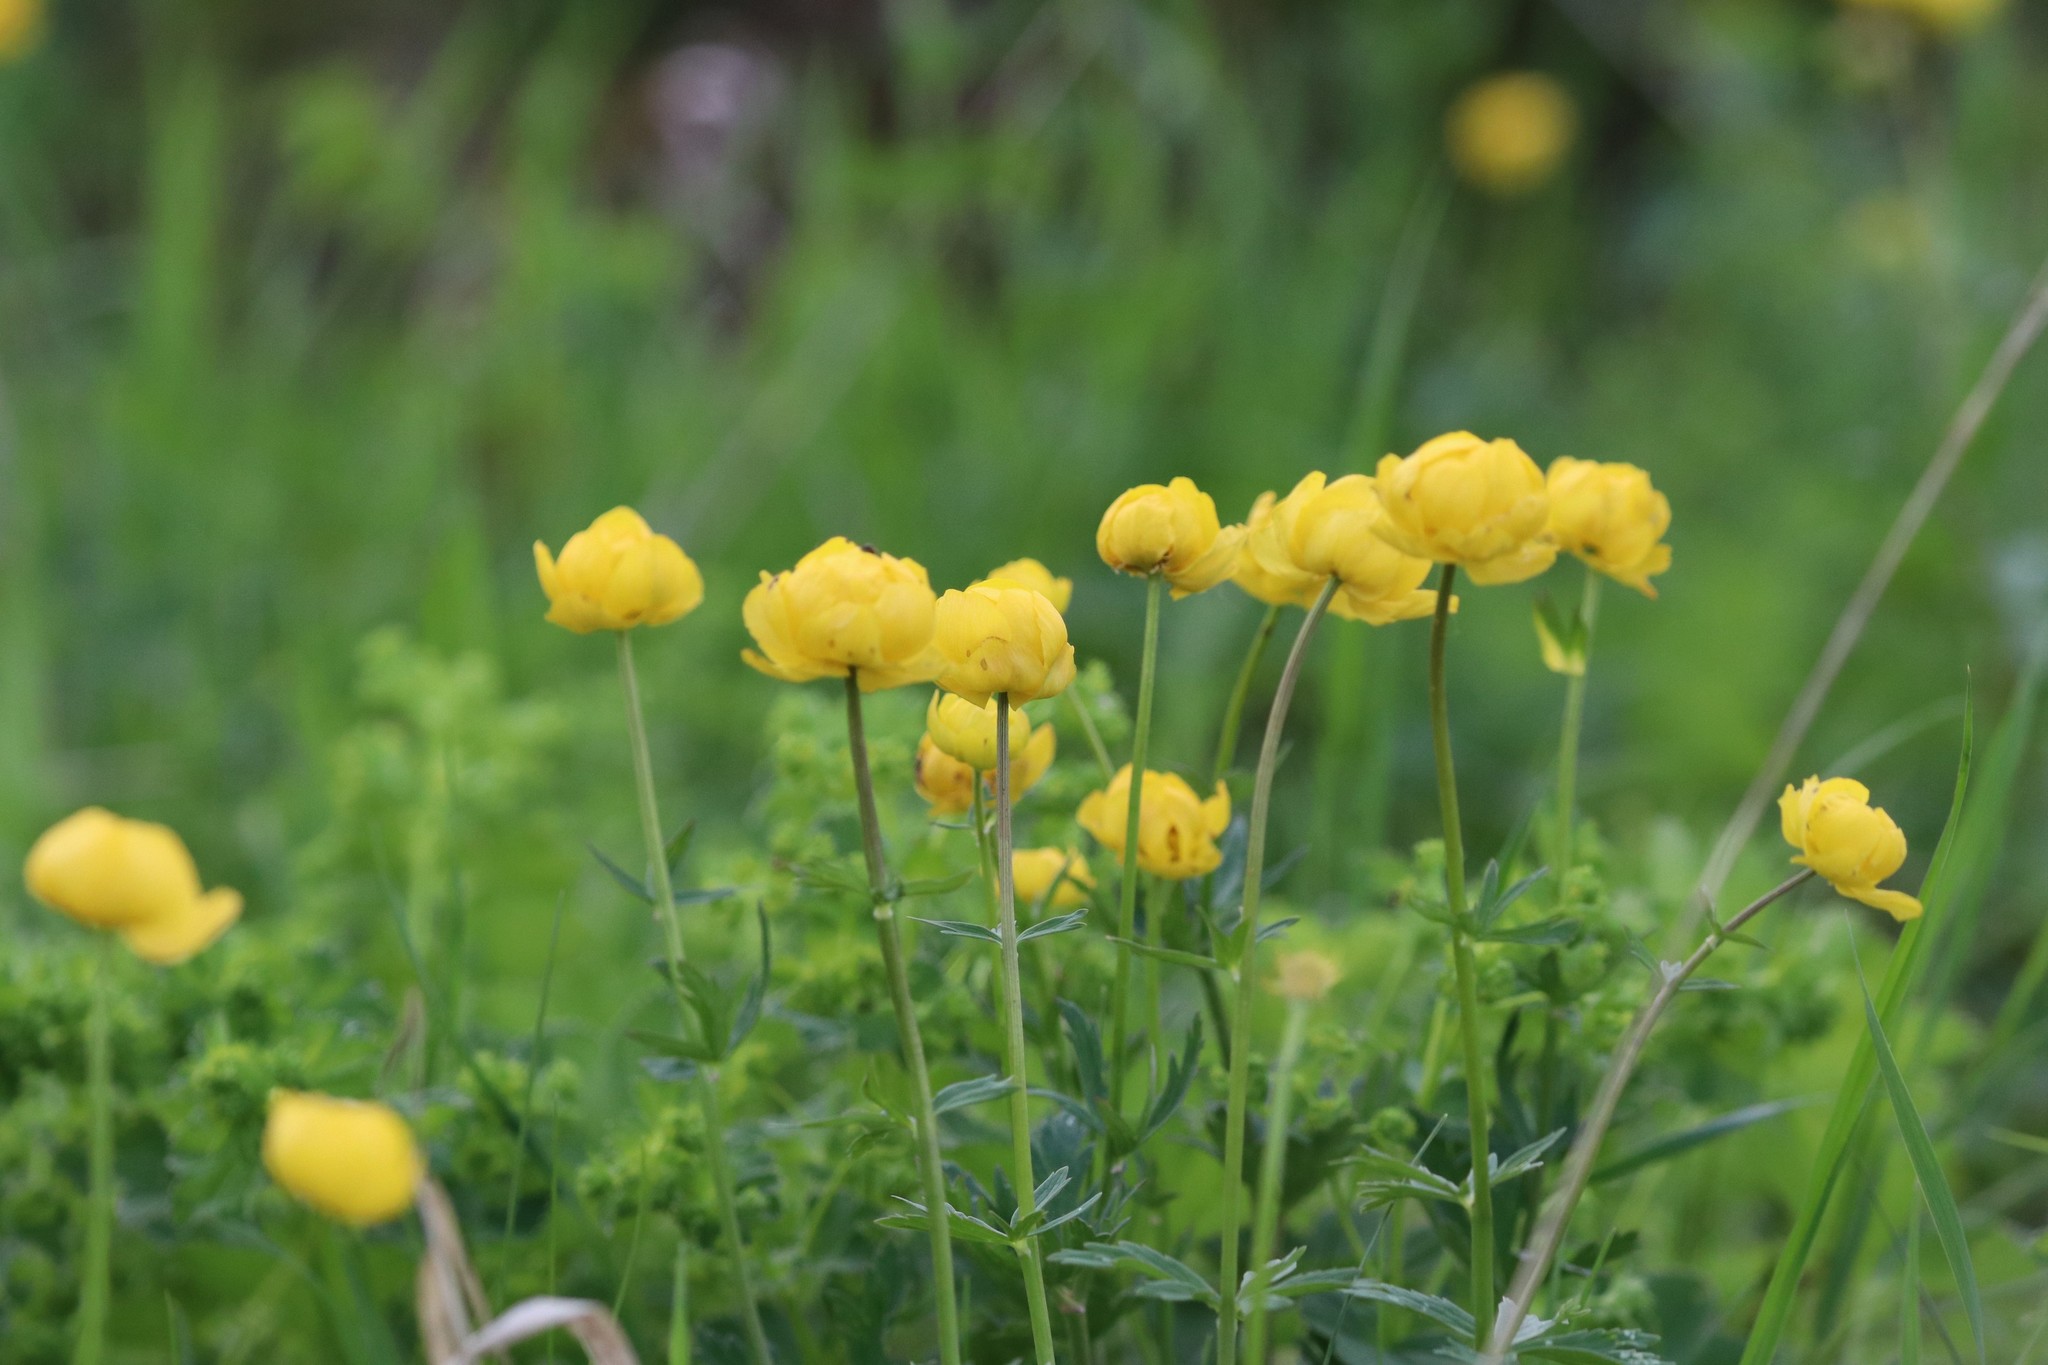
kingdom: Plantae
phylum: Tracheophyta
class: Magnoliopsida
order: Ranunculales
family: Ranunculaceae
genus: Trollius
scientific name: Trollius europaeus
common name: European globeflower
